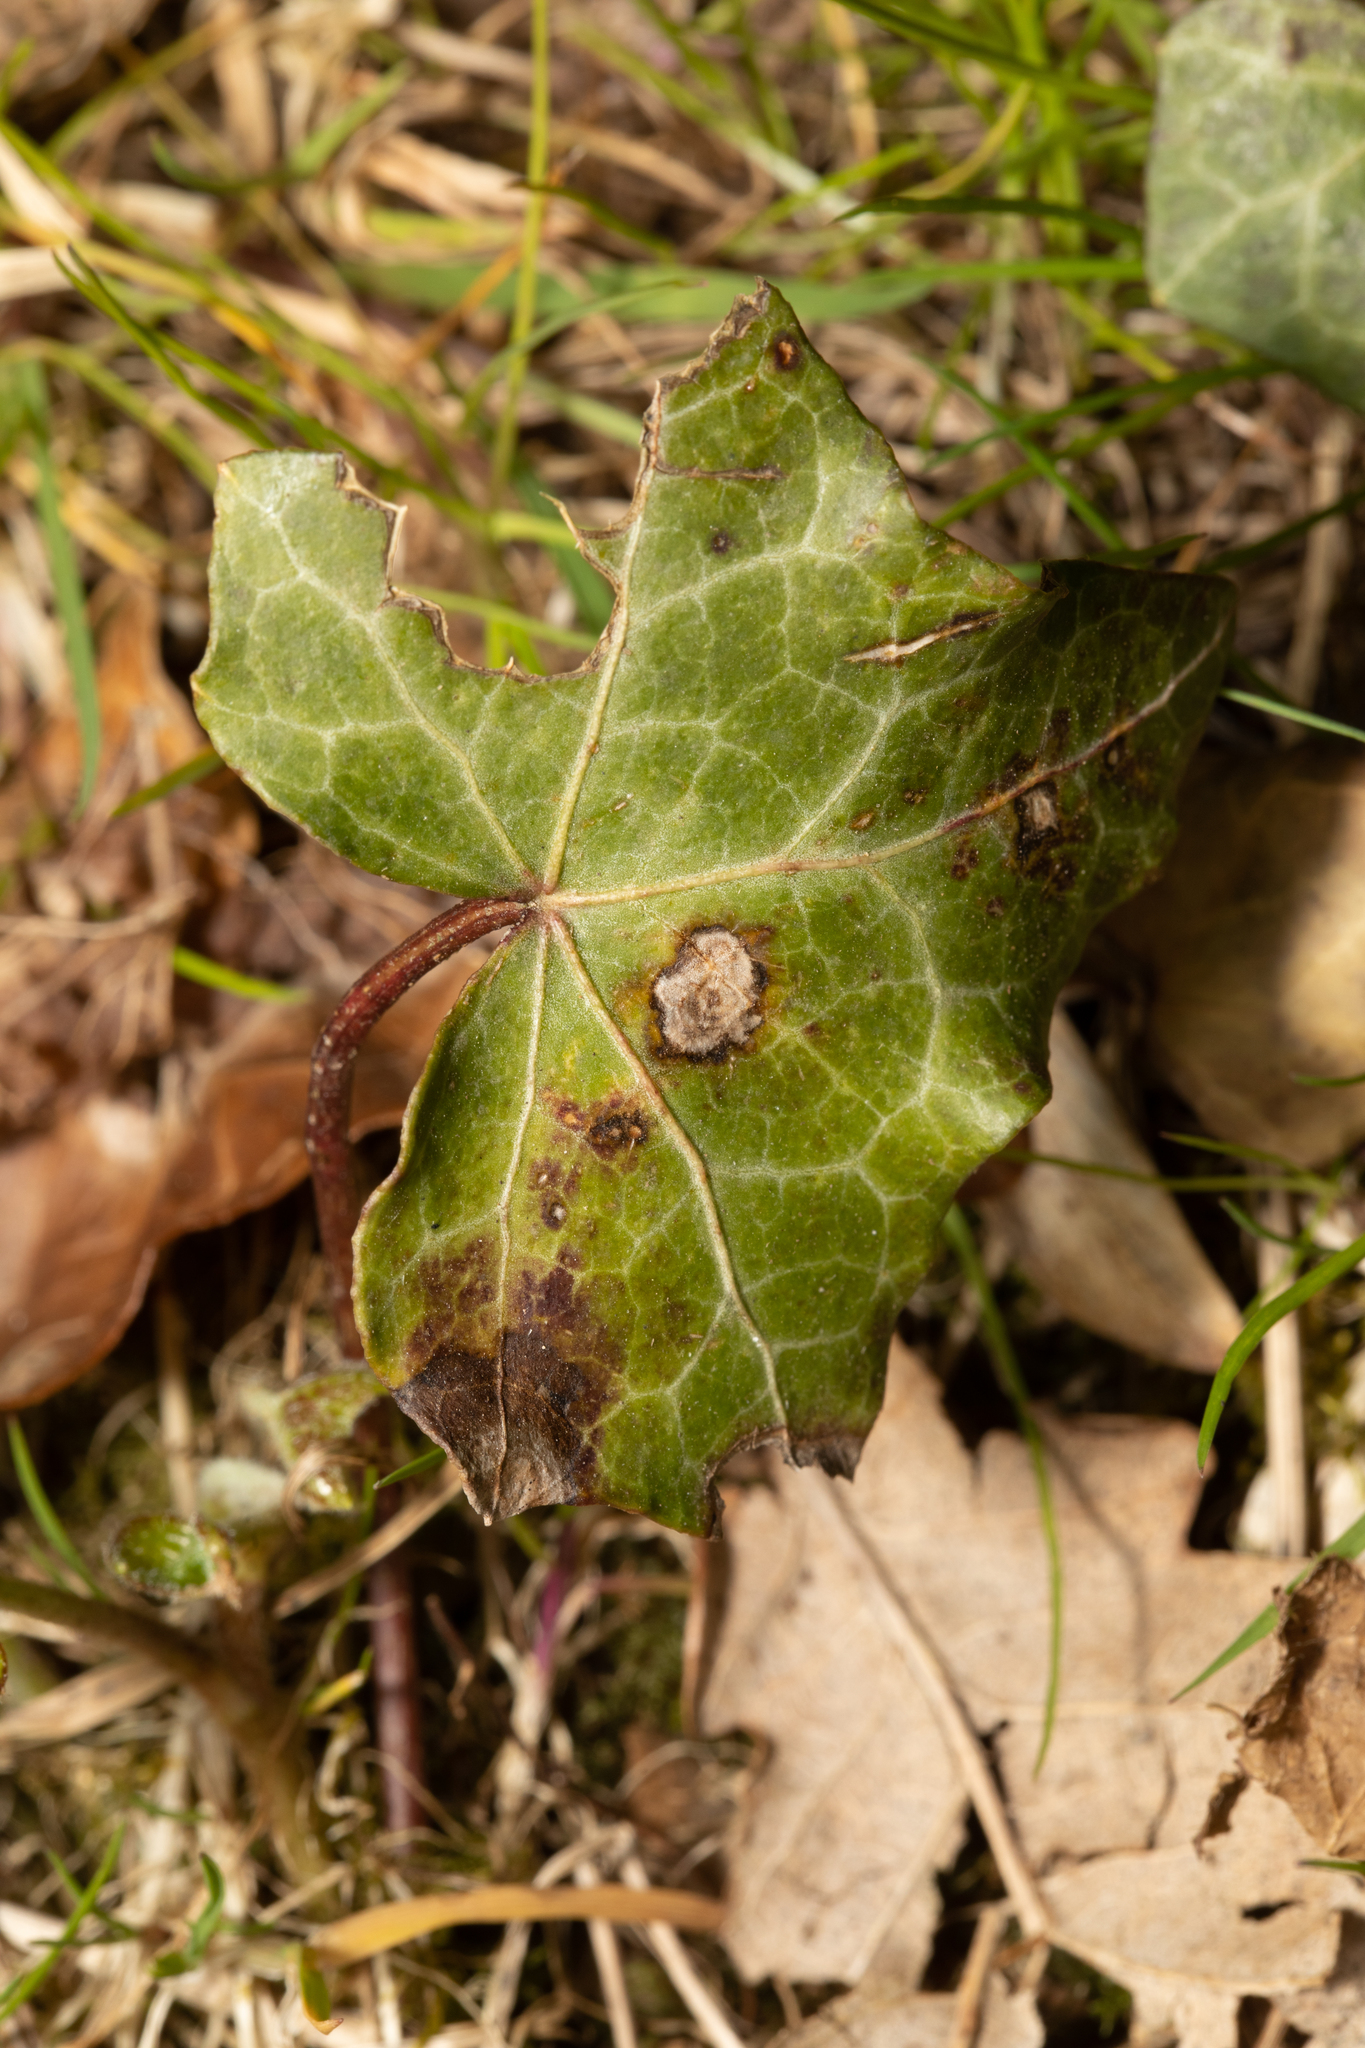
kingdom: Fungi
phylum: Ascomycota
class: Dothideomycetes
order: Pleosporales
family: Didymellaceae
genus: Boeremia
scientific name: Boeremia hedericola
